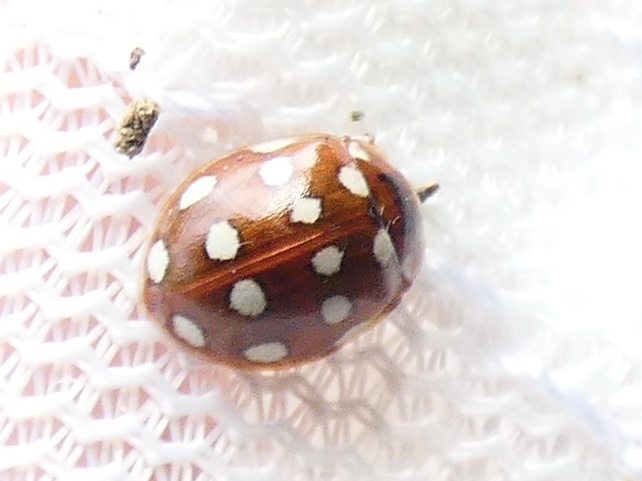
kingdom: Animalia
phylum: Arthropoda
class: Insecta
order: Coleoptera
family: Coccinellidae
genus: Calvia
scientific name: Calvia quatuordecimguttata
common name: Cream-spot ladybird
